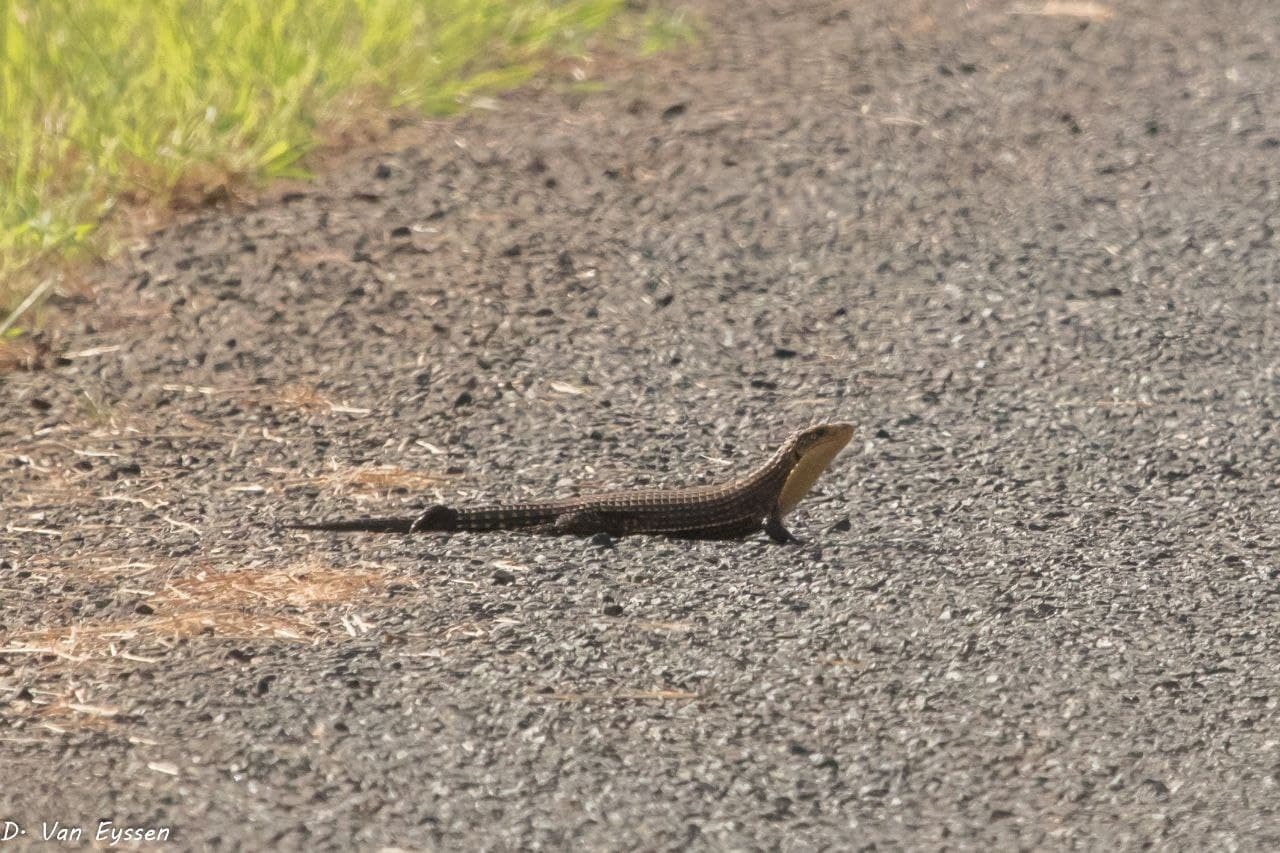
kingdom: Animalia
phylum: Chordata
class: Squamata
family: Gerrhosauridae
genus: Broadleysaurus
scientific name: Broadleysaurus major
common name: Rough-scaled plated lizard
